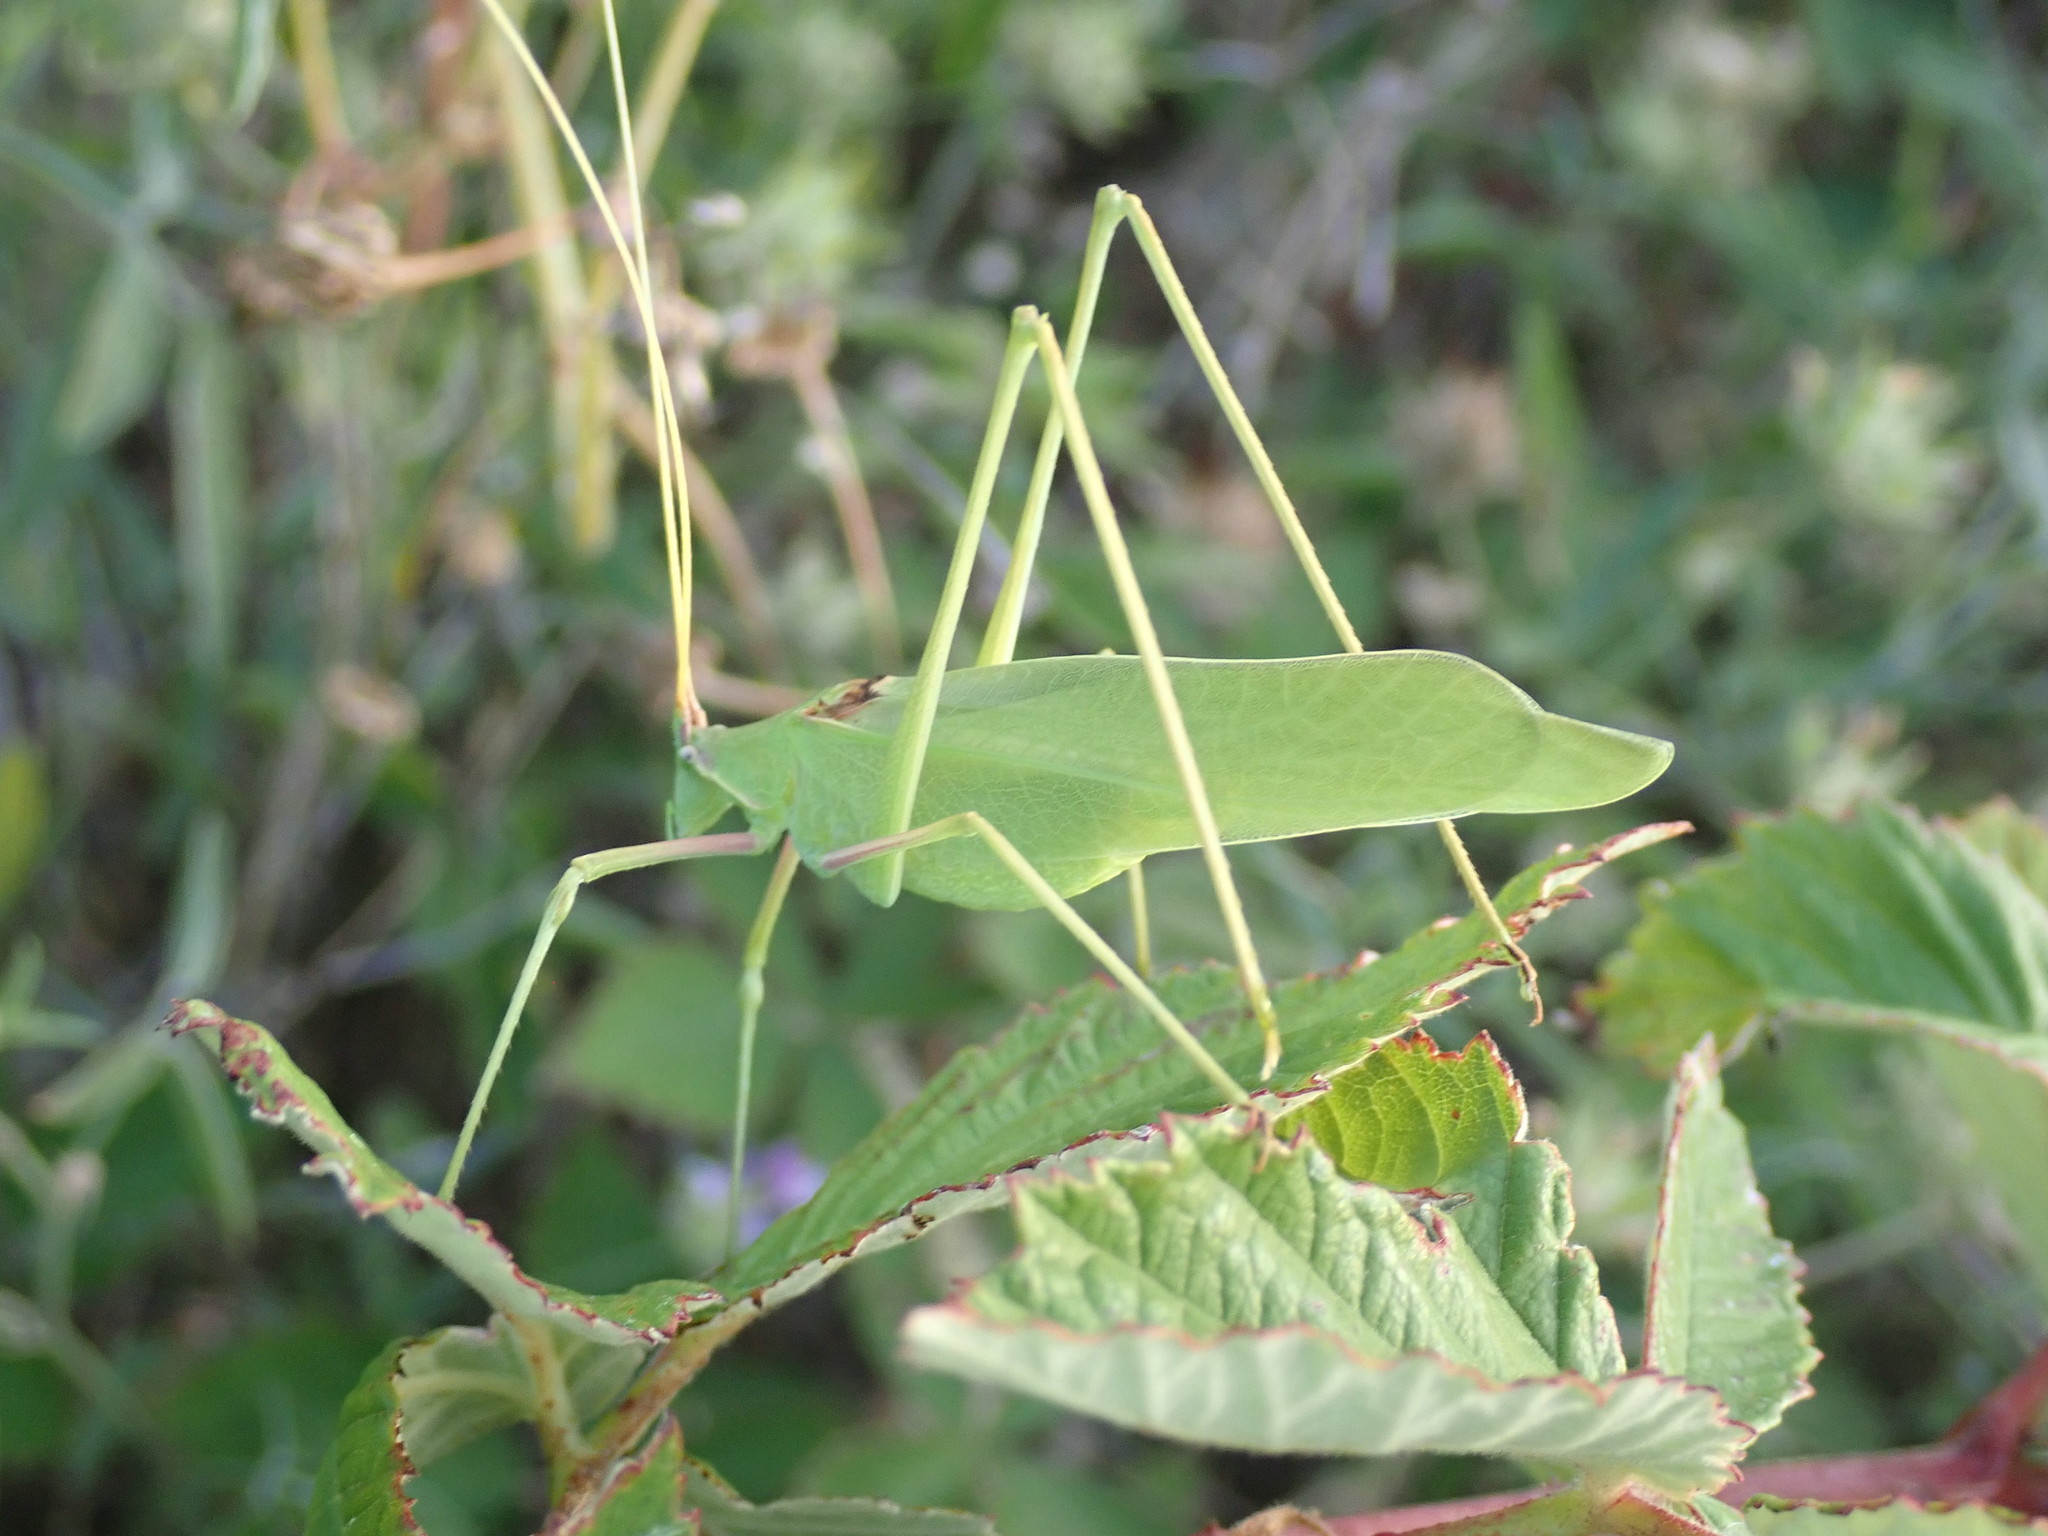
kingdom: Animalia
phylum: Arthropoda
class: Insecta
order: Orthoptera
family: Tettigoniidae
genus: Acrometopa
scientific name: Acrometopa macropoda
